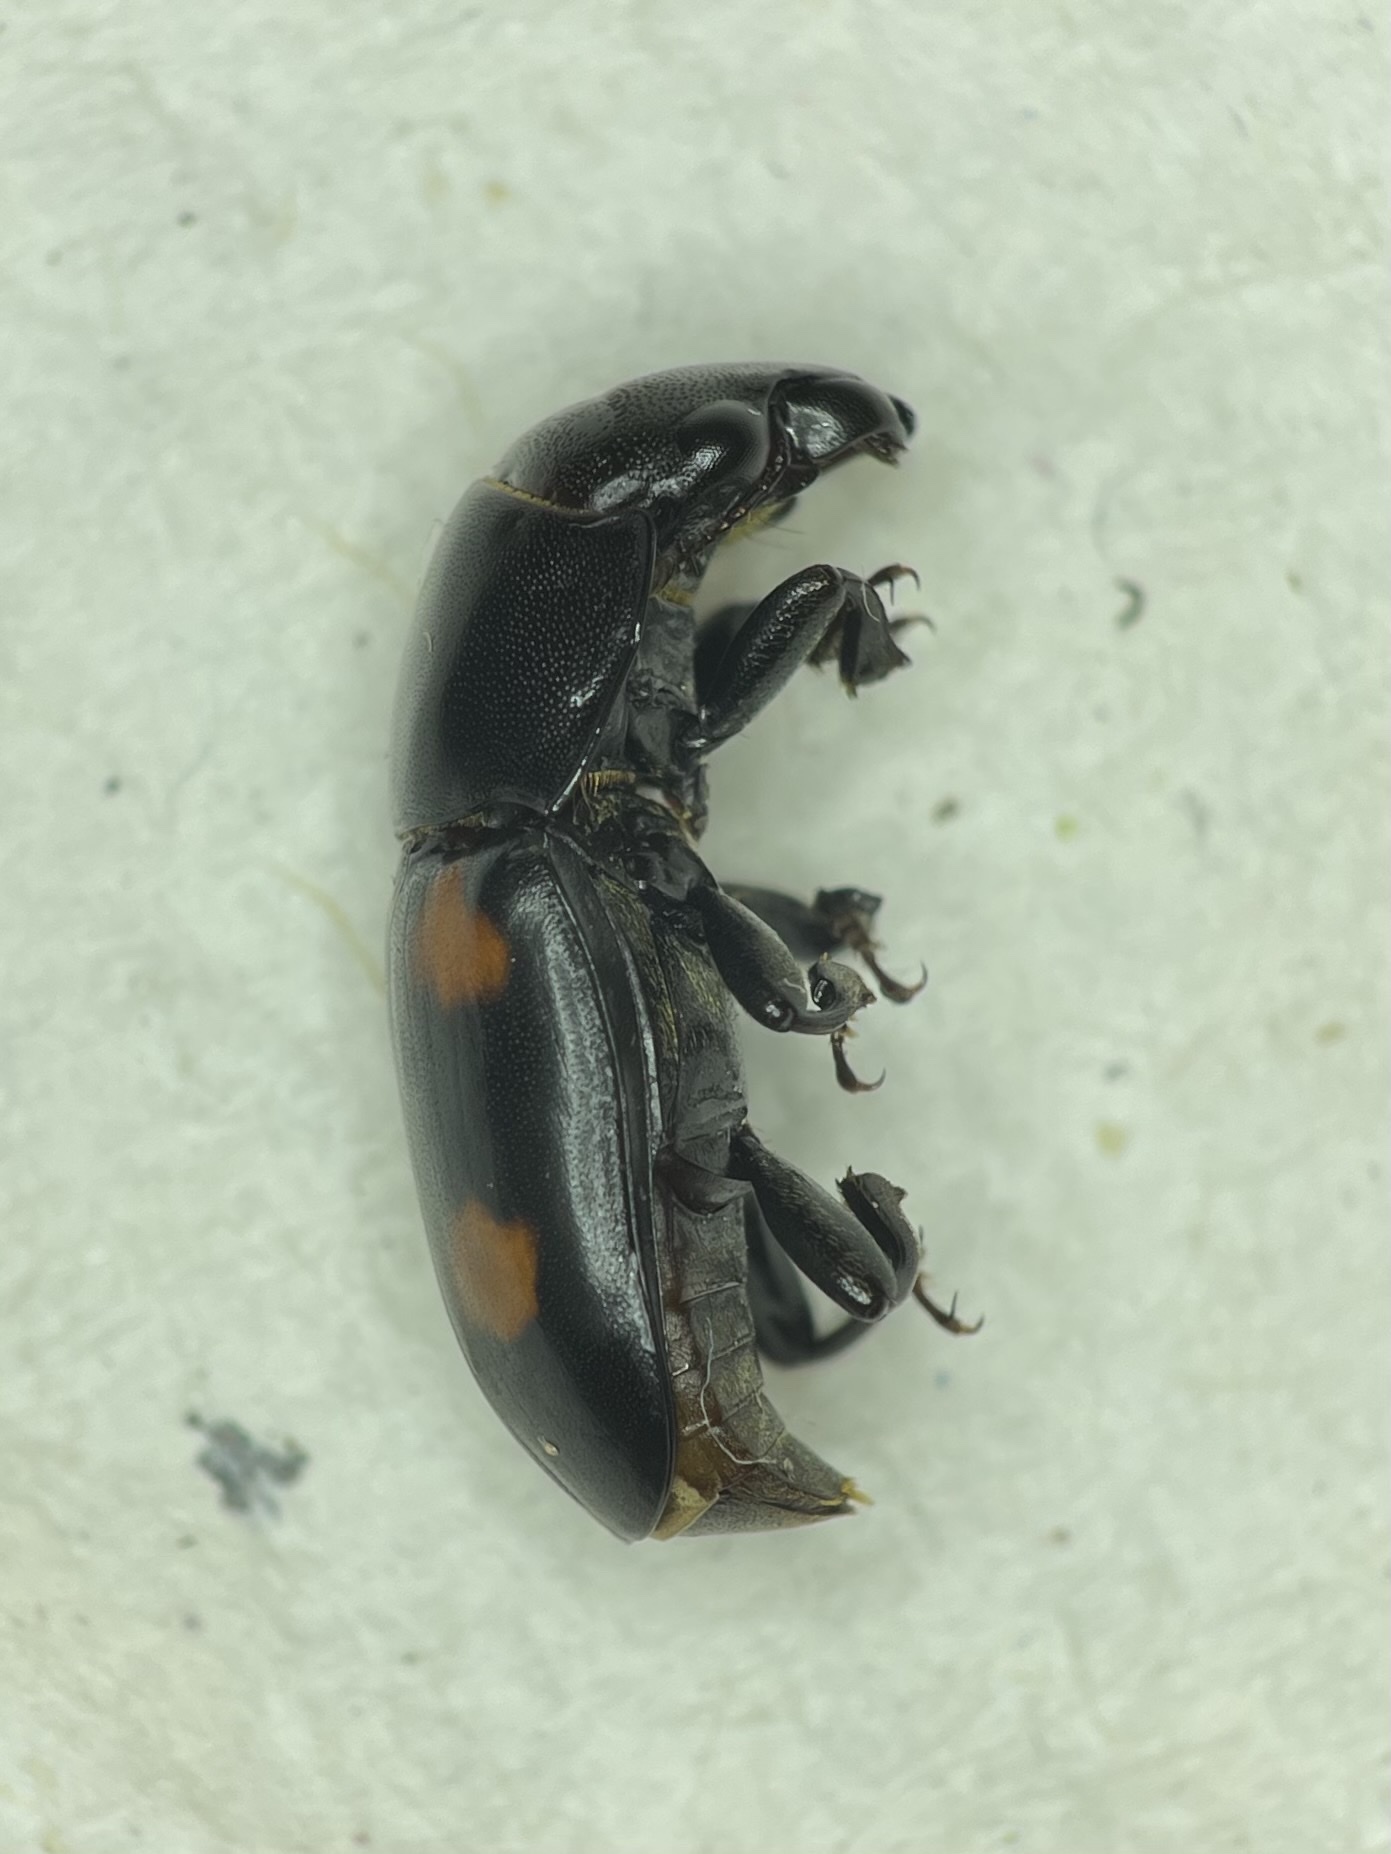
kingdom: Animalia
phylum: Arthropoda
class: Insecta
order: Coleoptera
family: Nitidulidae
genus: Glischrochilus
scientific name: Glischrochilus obtusus
